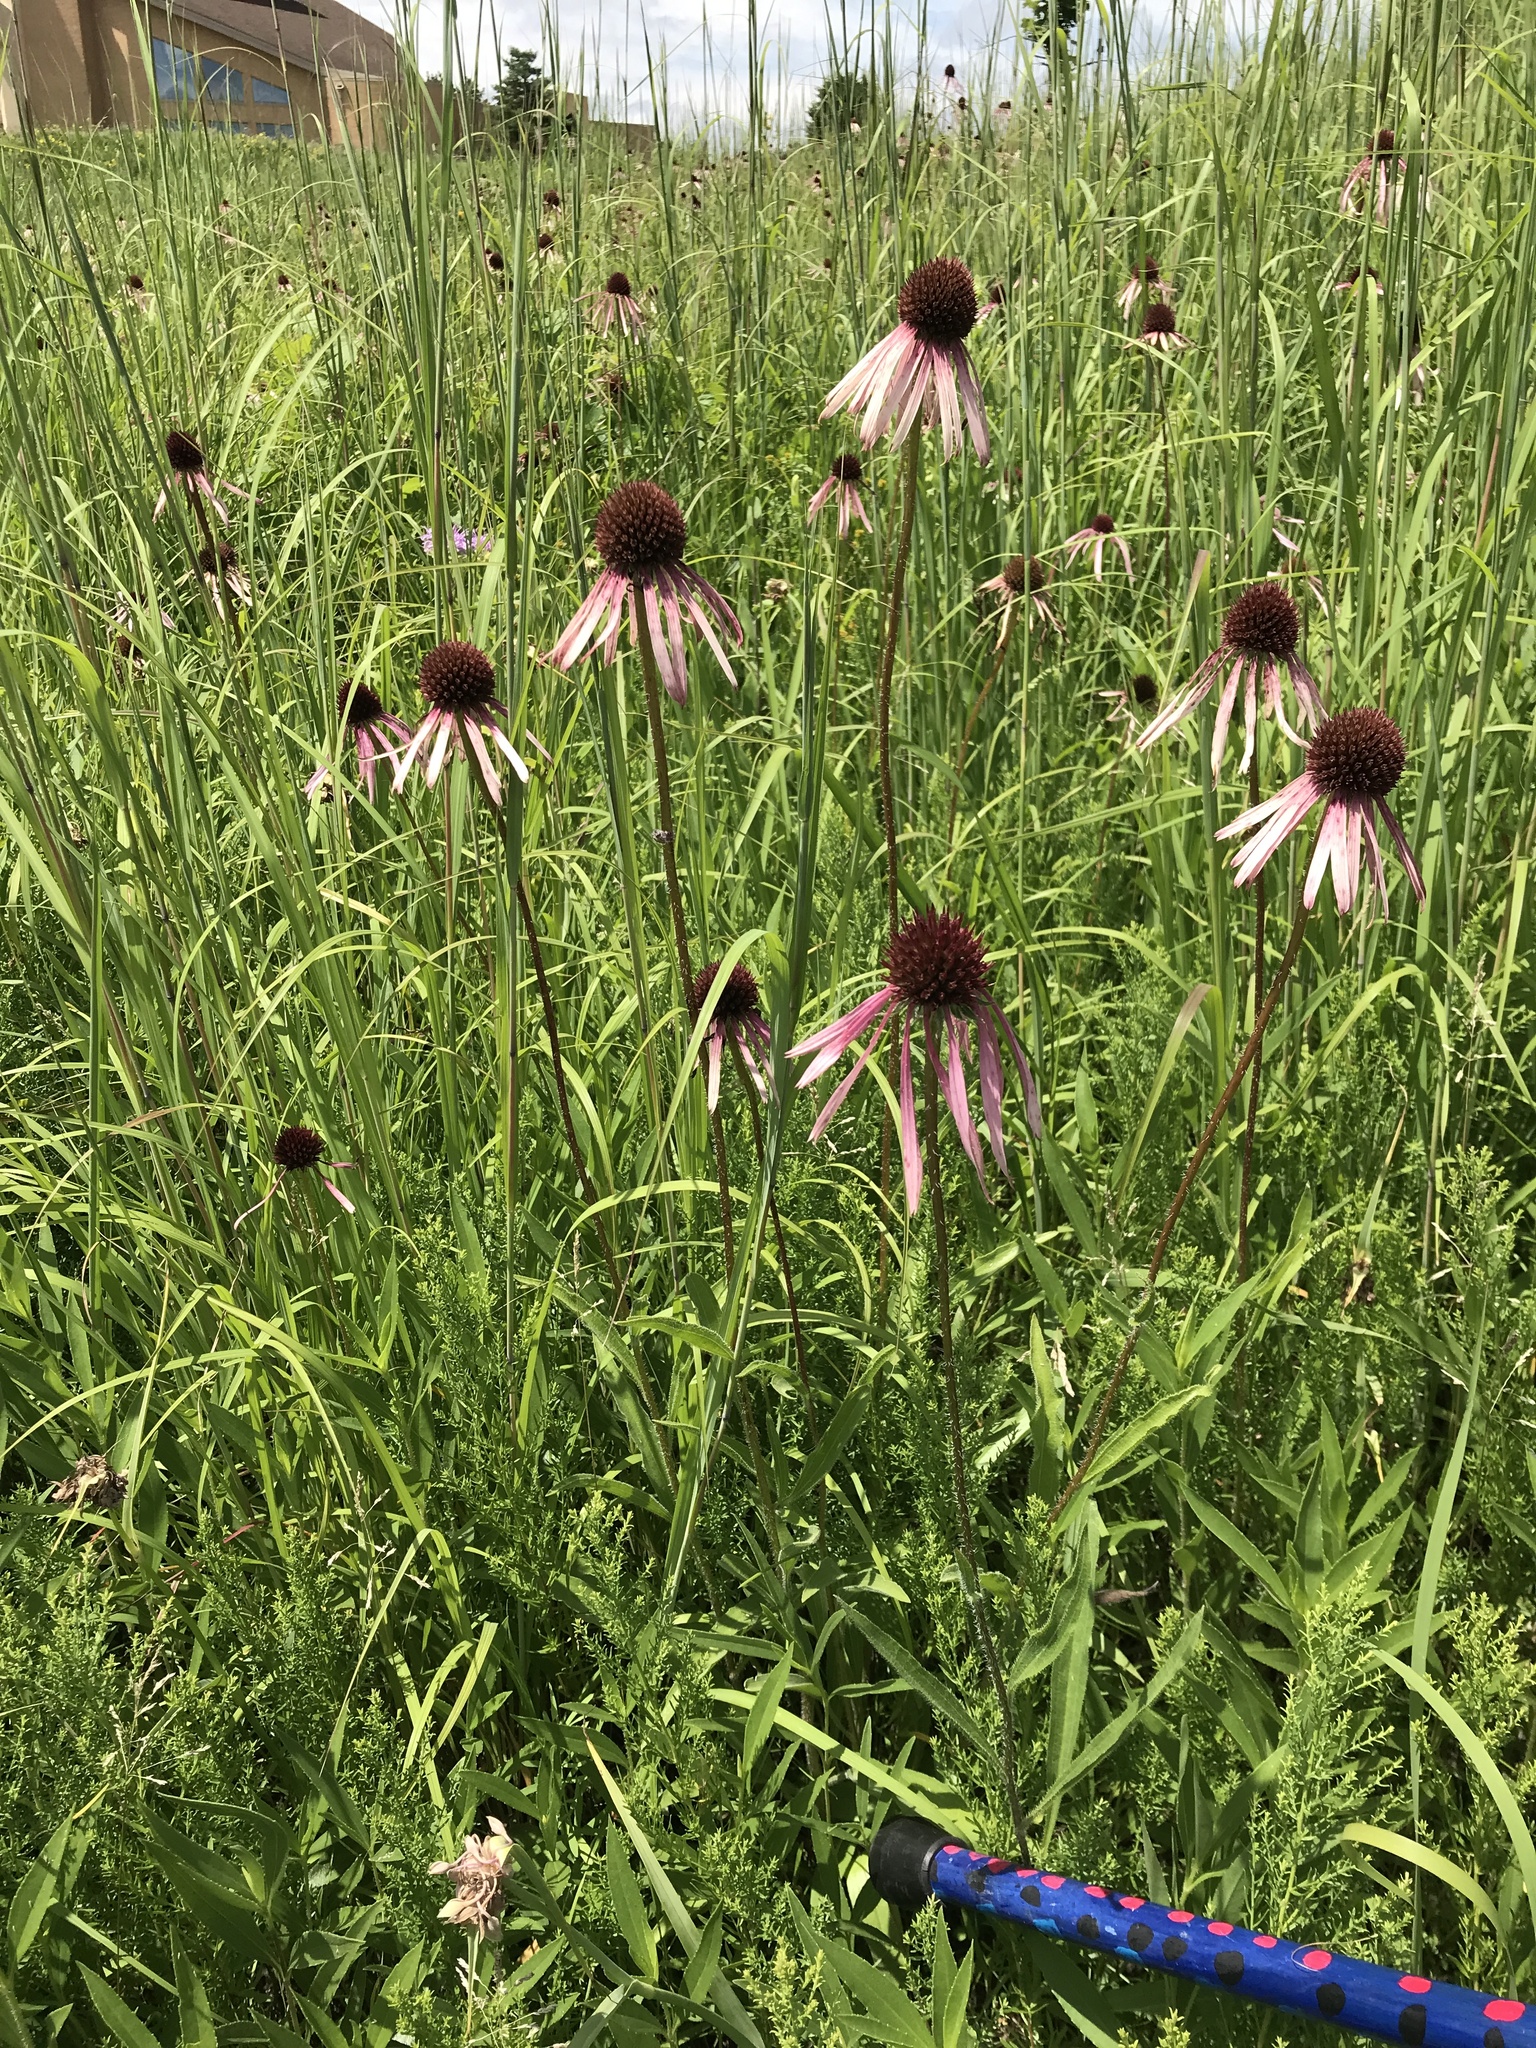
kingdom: Plantae
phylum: Tracheophyta
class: Magnoliopsida
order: Asterales
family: Asteraceae
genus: Echinacea
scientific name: Echinacea pallida
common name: Pale echinacea
